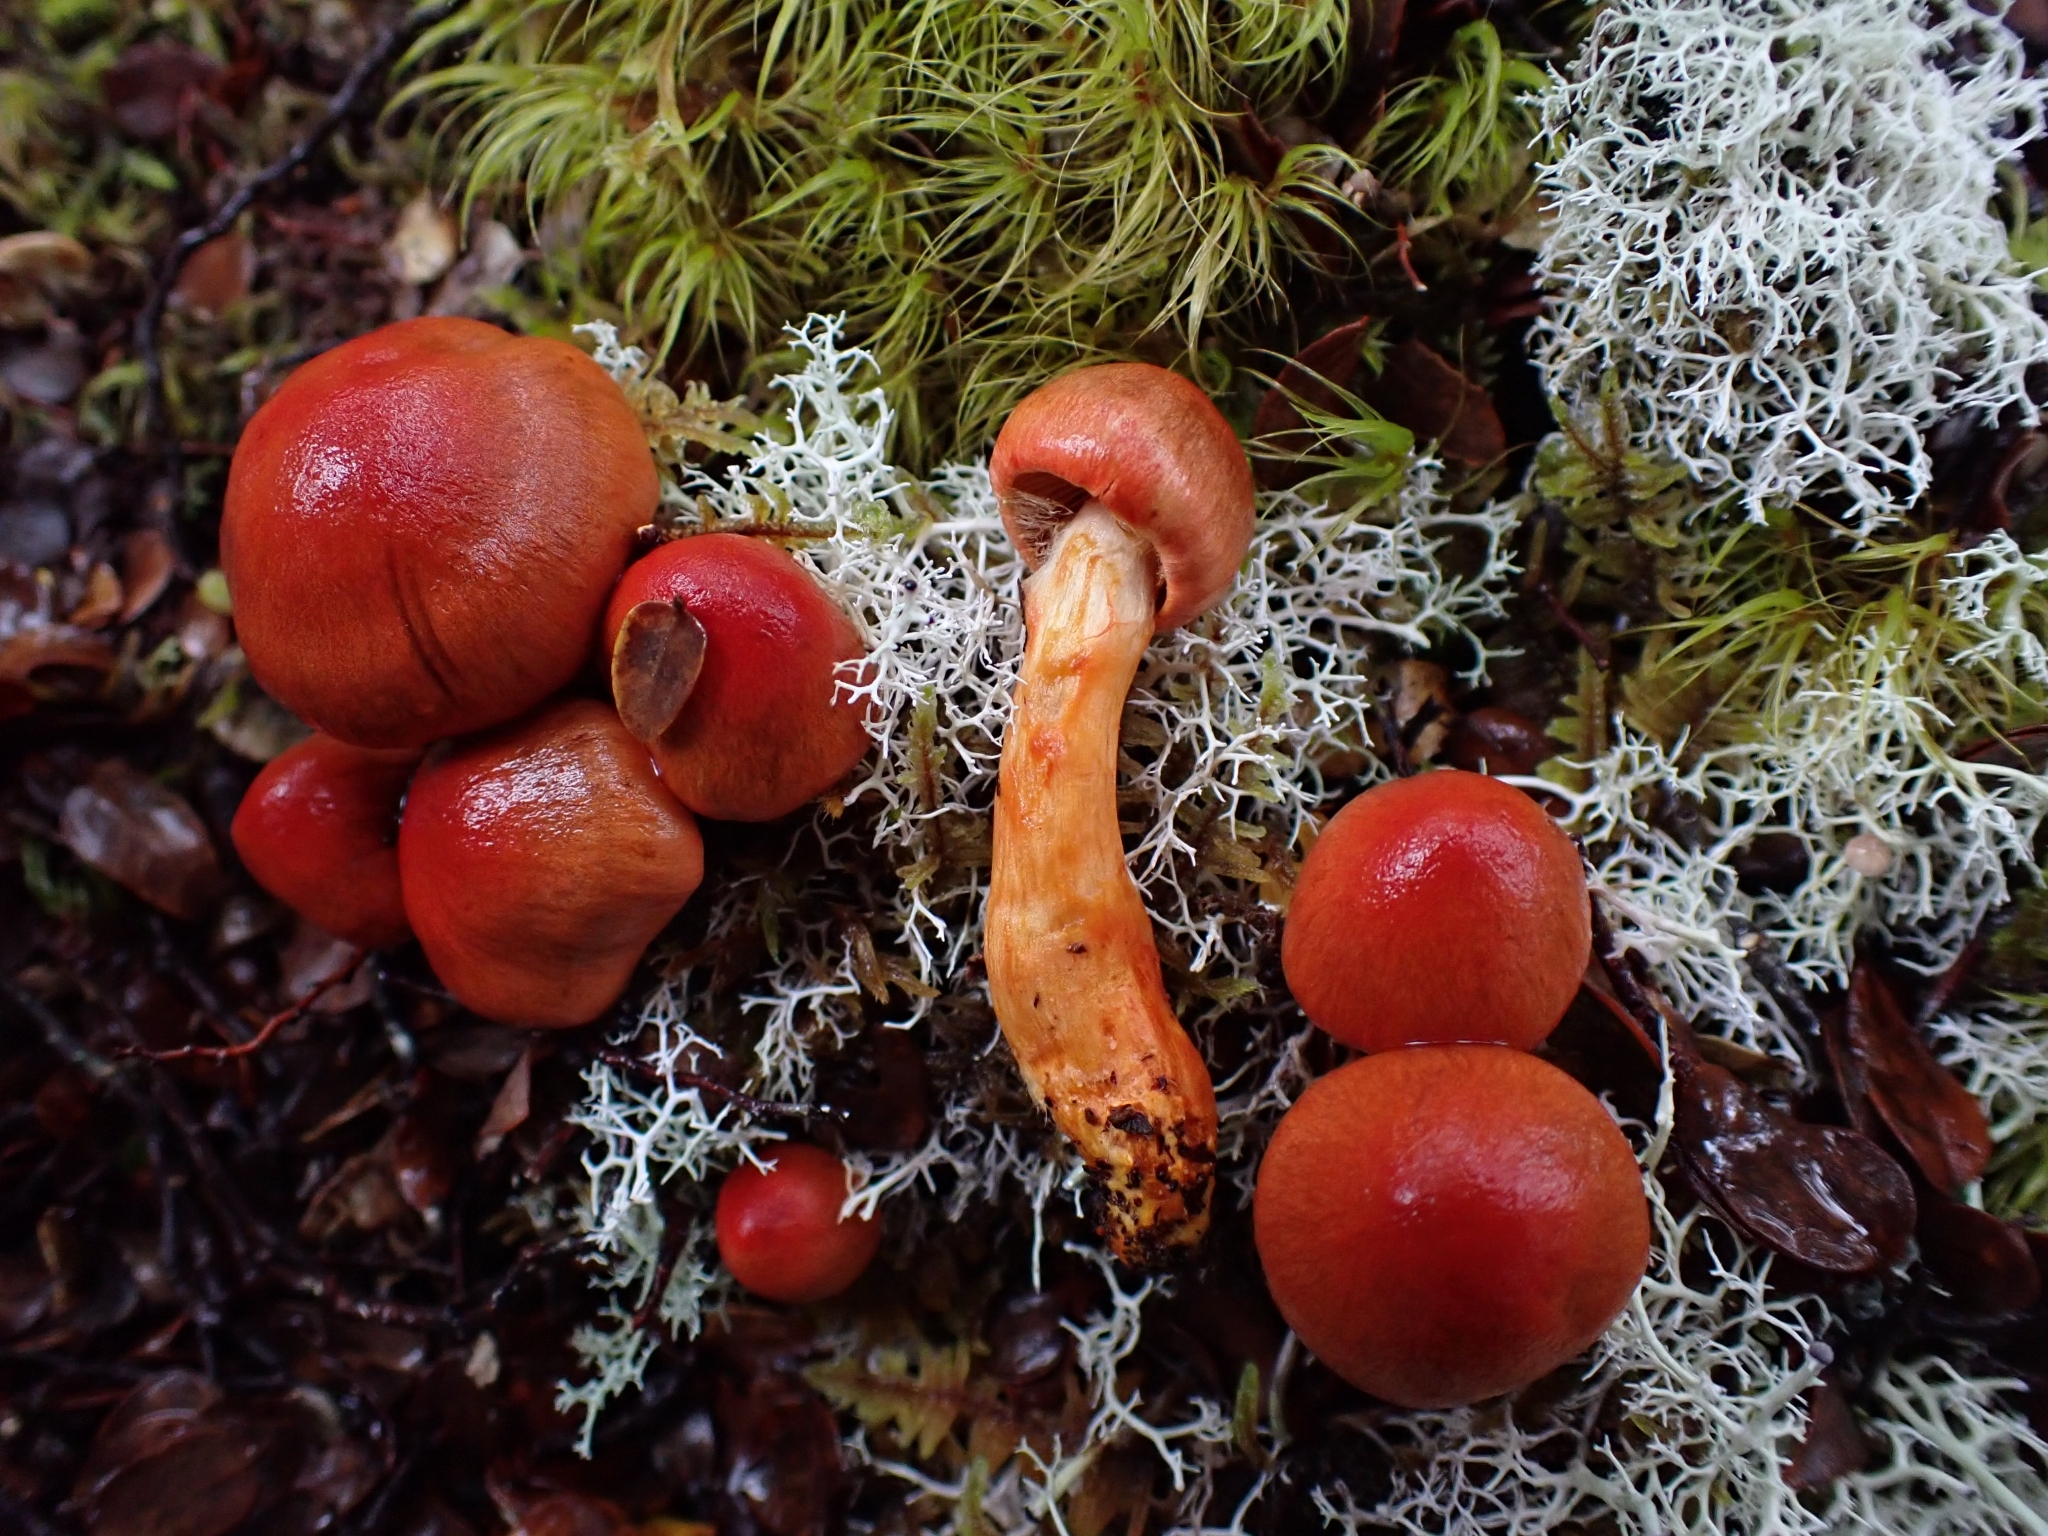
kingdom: Fungi
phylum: Basidiomycota
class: Agaricomycetes
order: Agaricales
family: Cortinariaceae
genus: Cortinarius
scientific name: Cortinarius cardinalis
